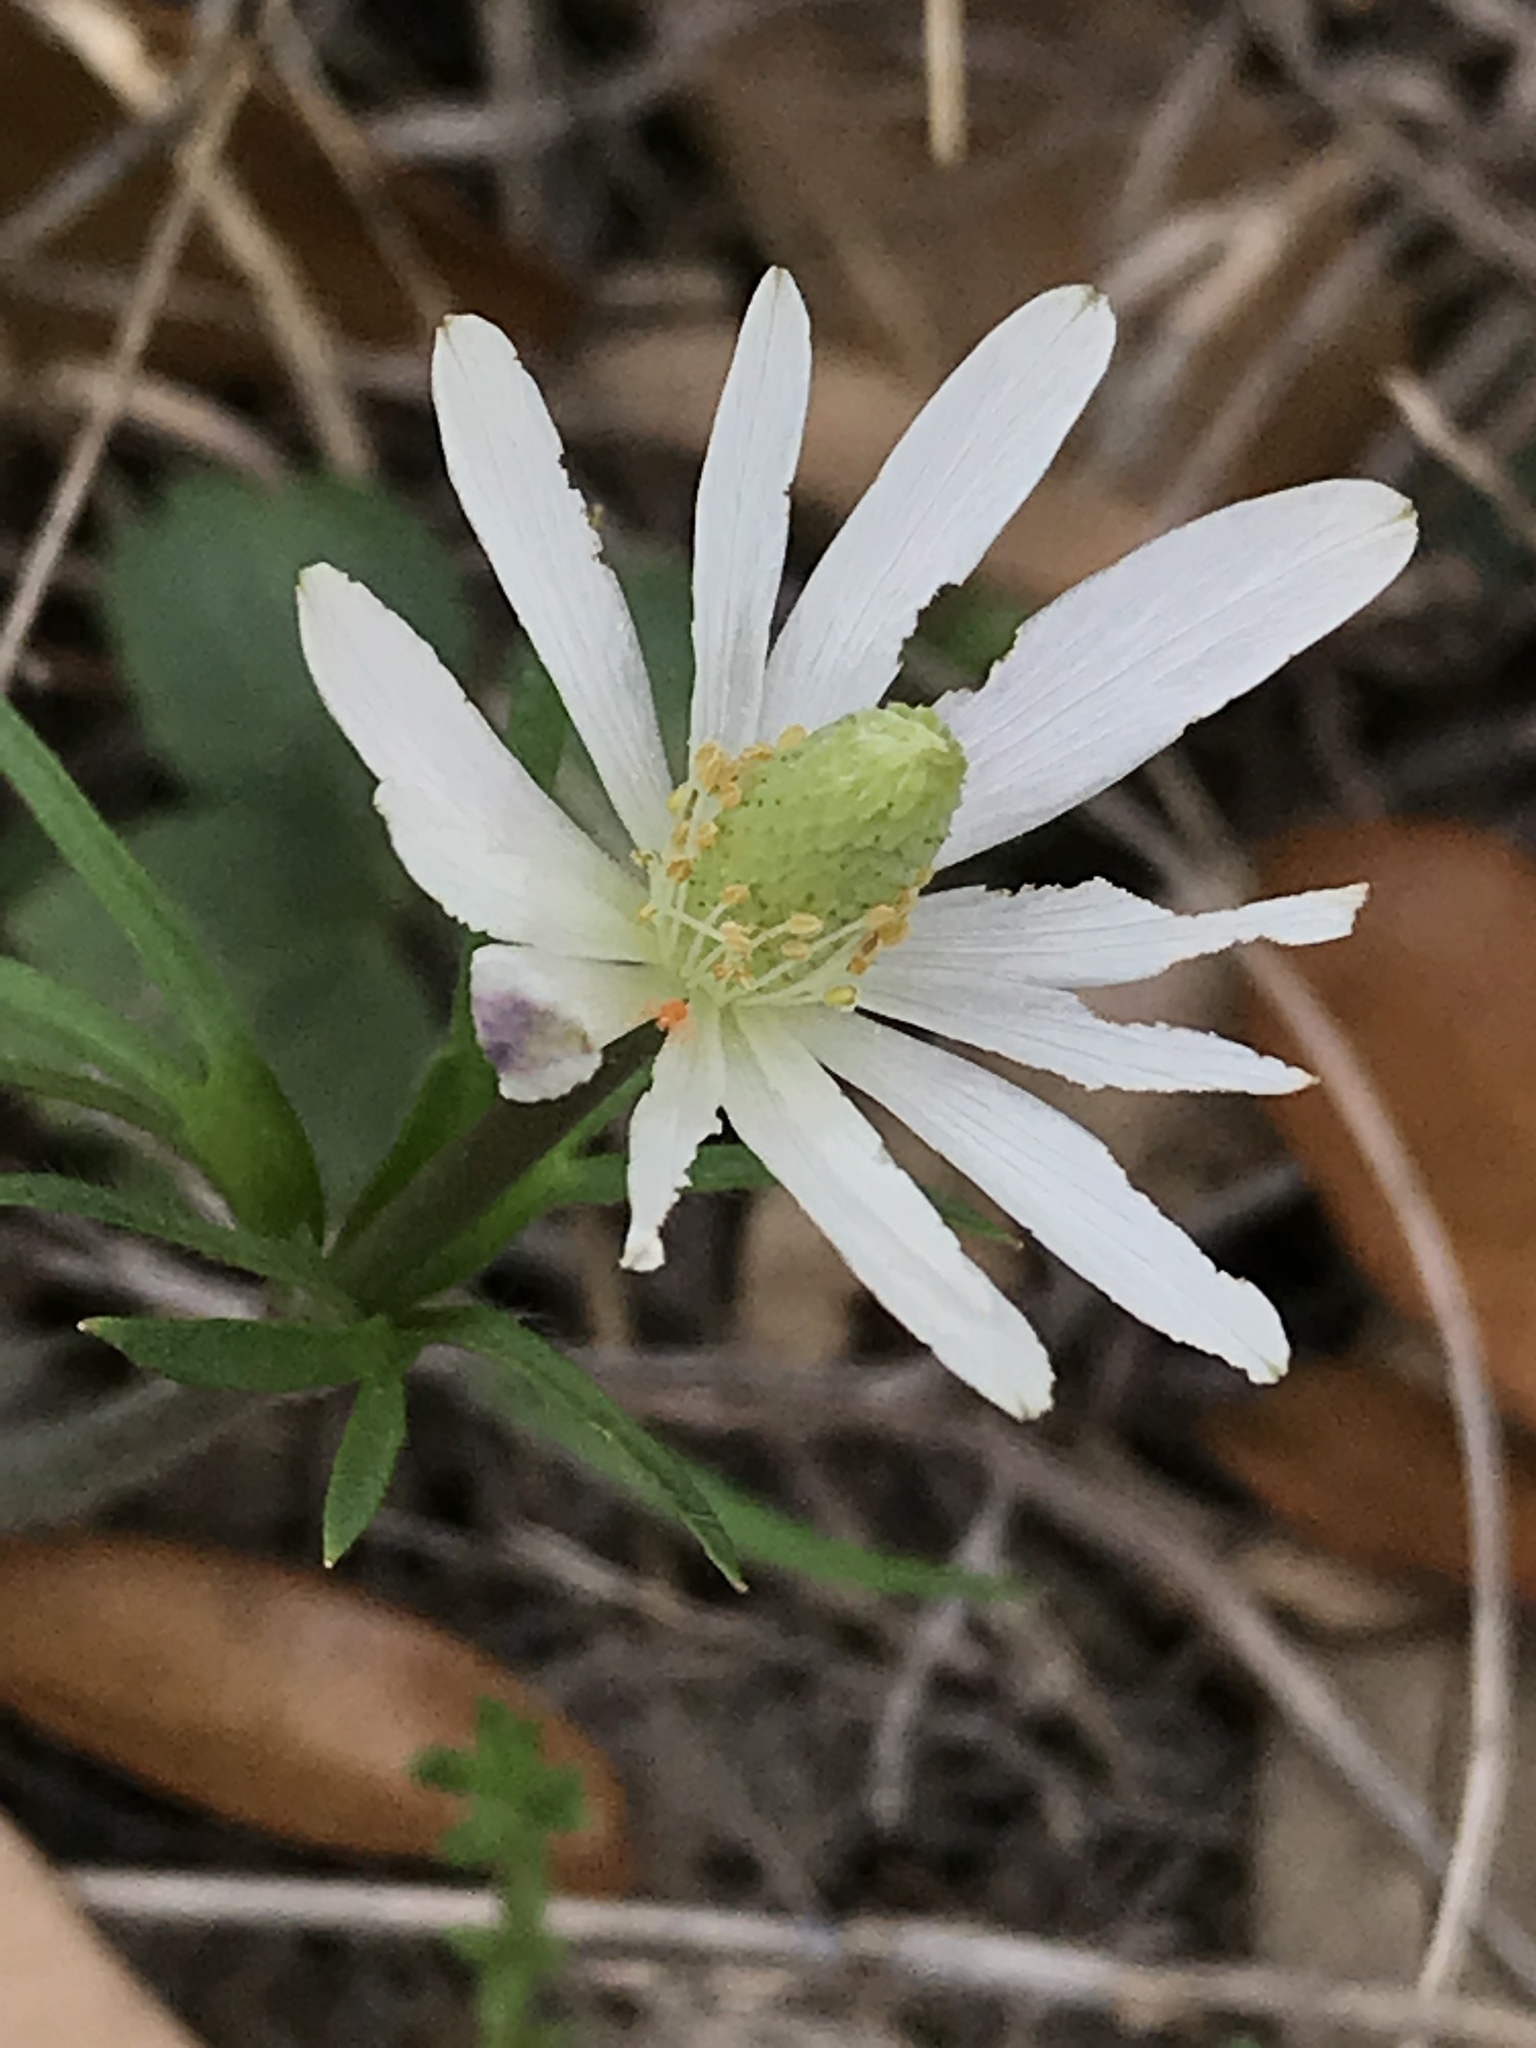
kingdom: Plantae
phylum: Tracheophyta
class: Magnoliopsida
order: Ranunculales
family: Ranunculaceae
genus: Anemone
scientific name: Anemone berlandieri
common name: Ten-petal anemone
